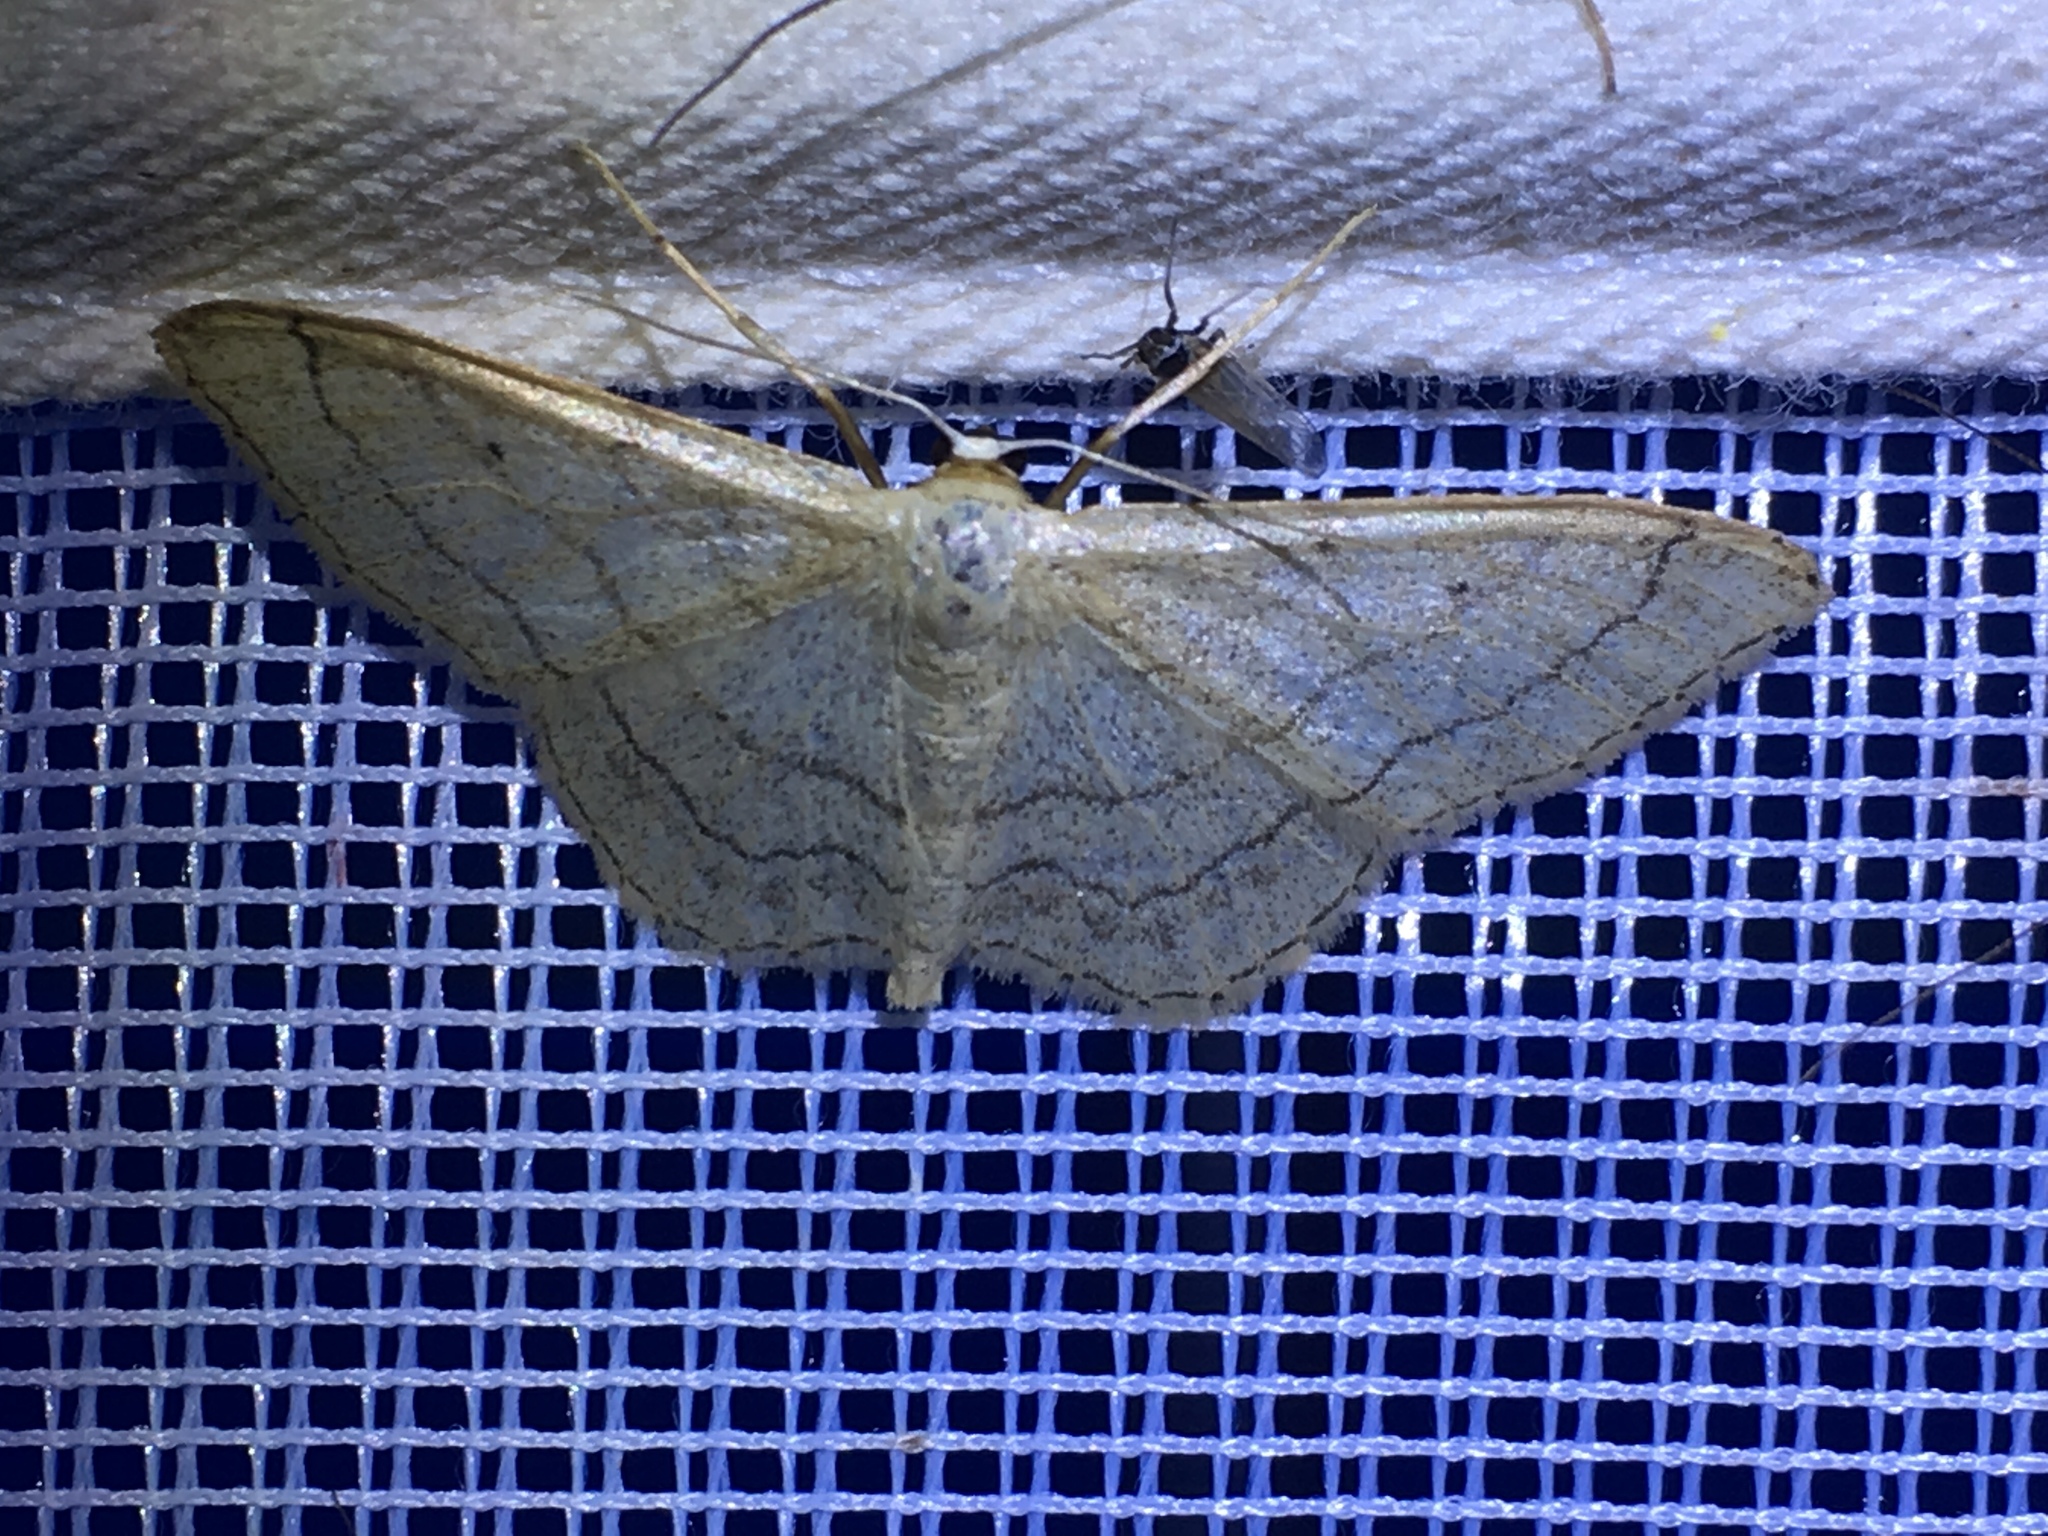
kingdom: Animalia
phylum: Arthropoda
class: Insecta
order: Lepidoptera
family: Geometridae
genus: Idaea
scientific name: Idaea aversata
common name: Riband wave
